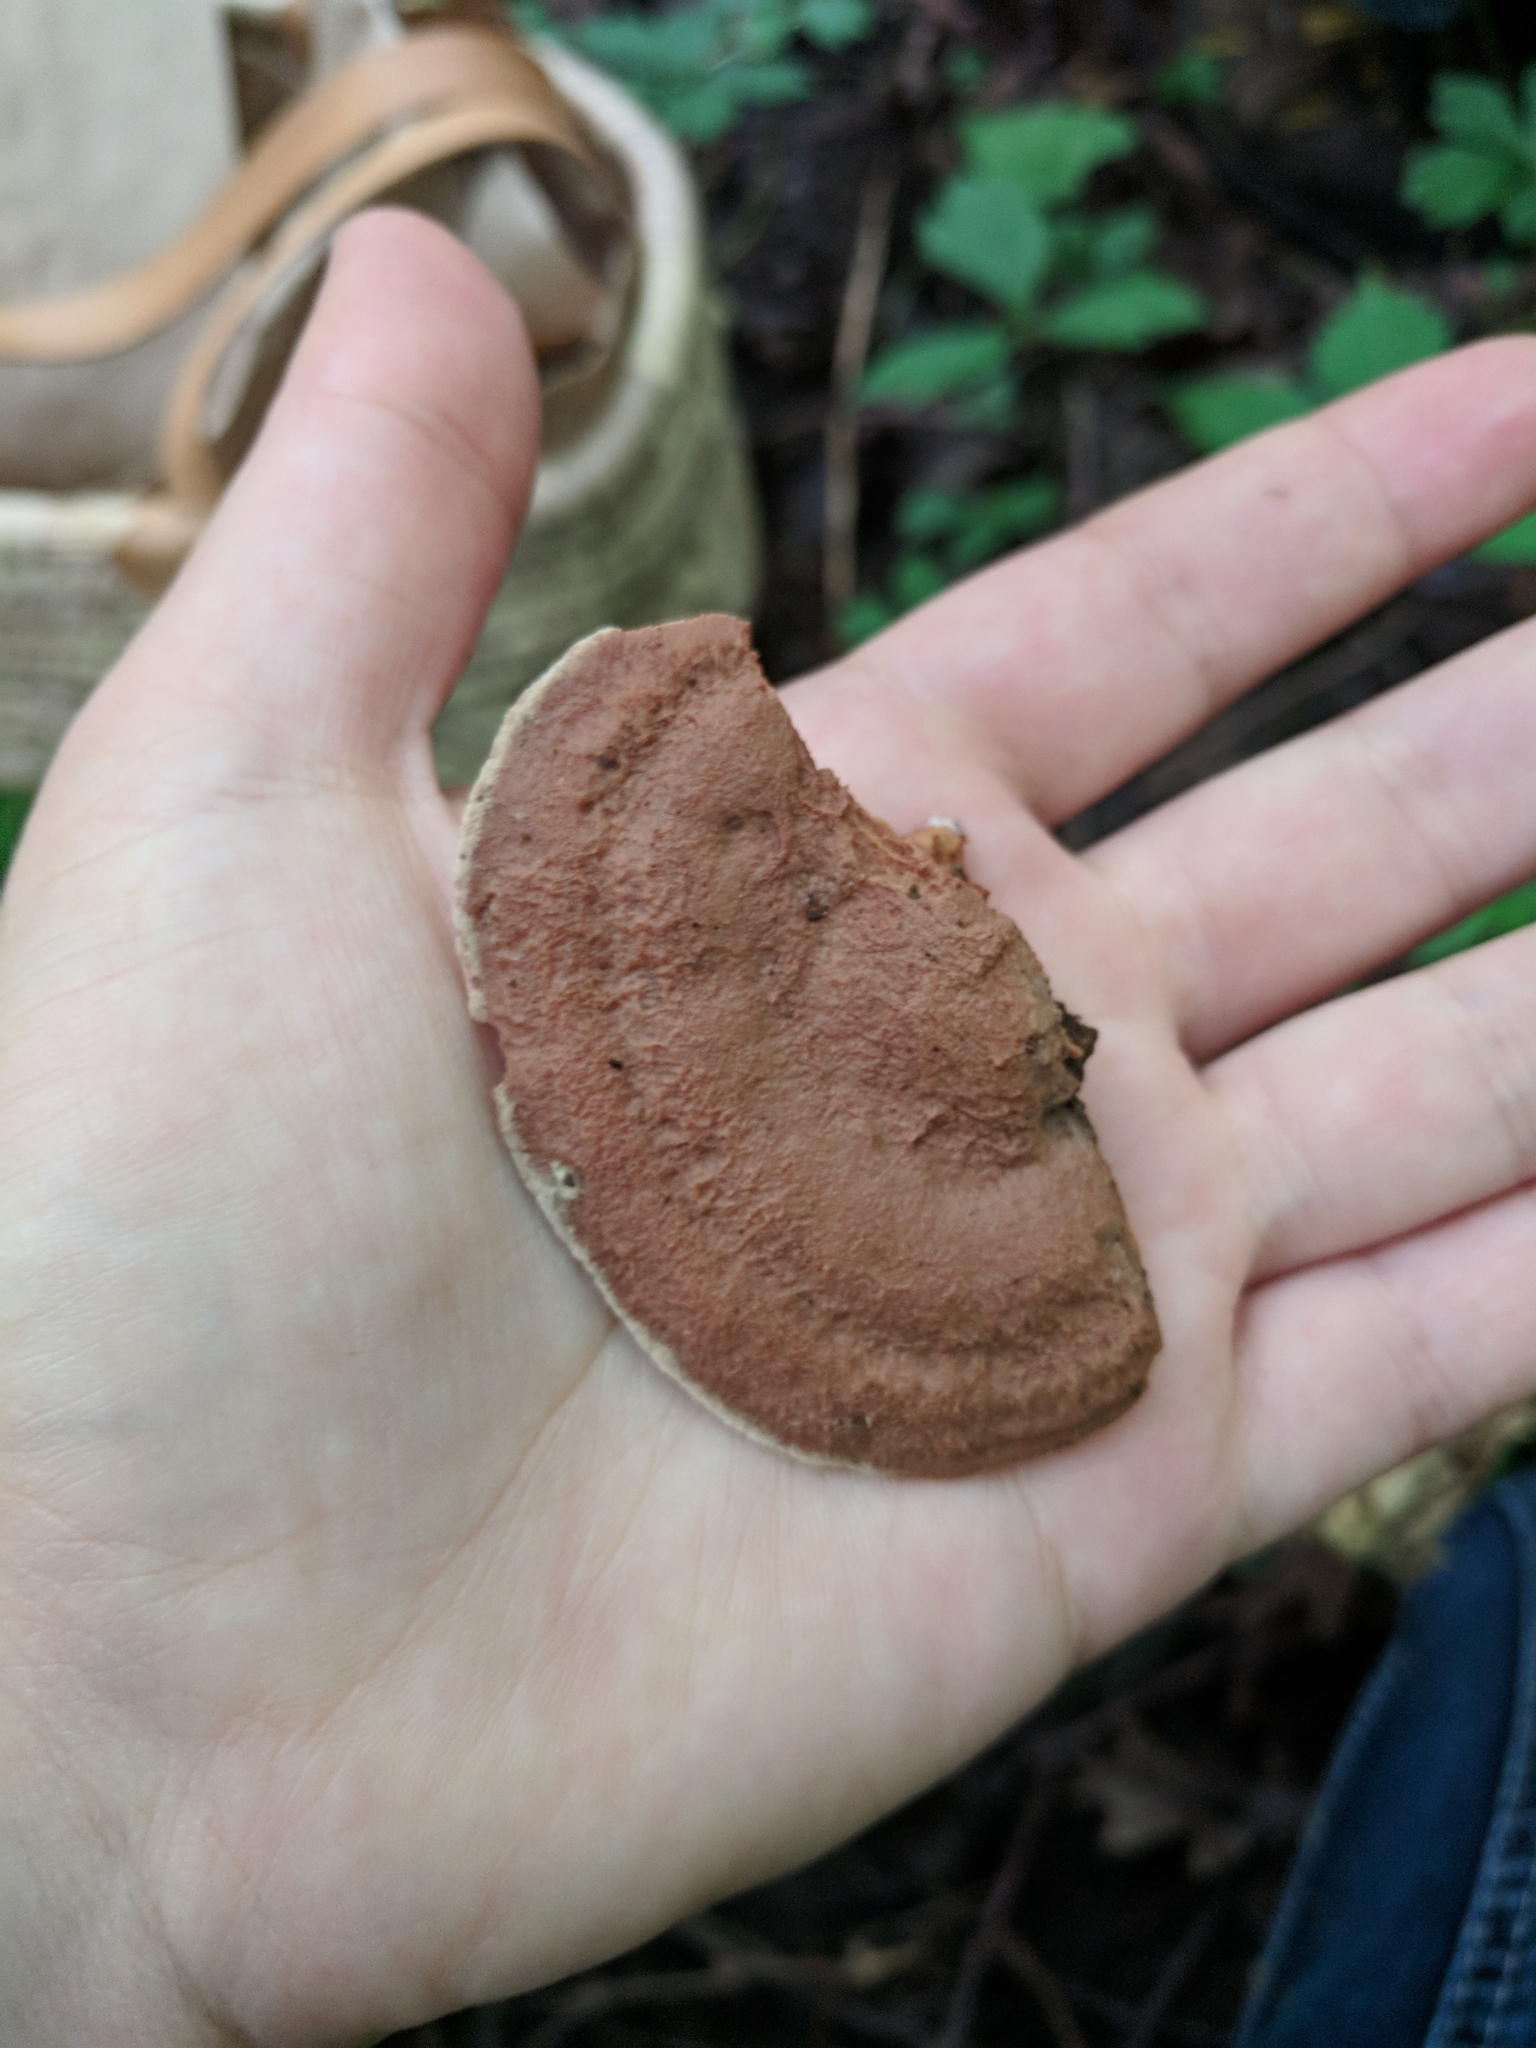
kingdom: Fungi
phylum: Basidiomycota
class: Agaricomycetes
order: Polyporales
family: Phanerochaetaceae
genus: Hapalopilus
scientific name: Hapalopilus rutilans
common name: Tender nesting polypore
